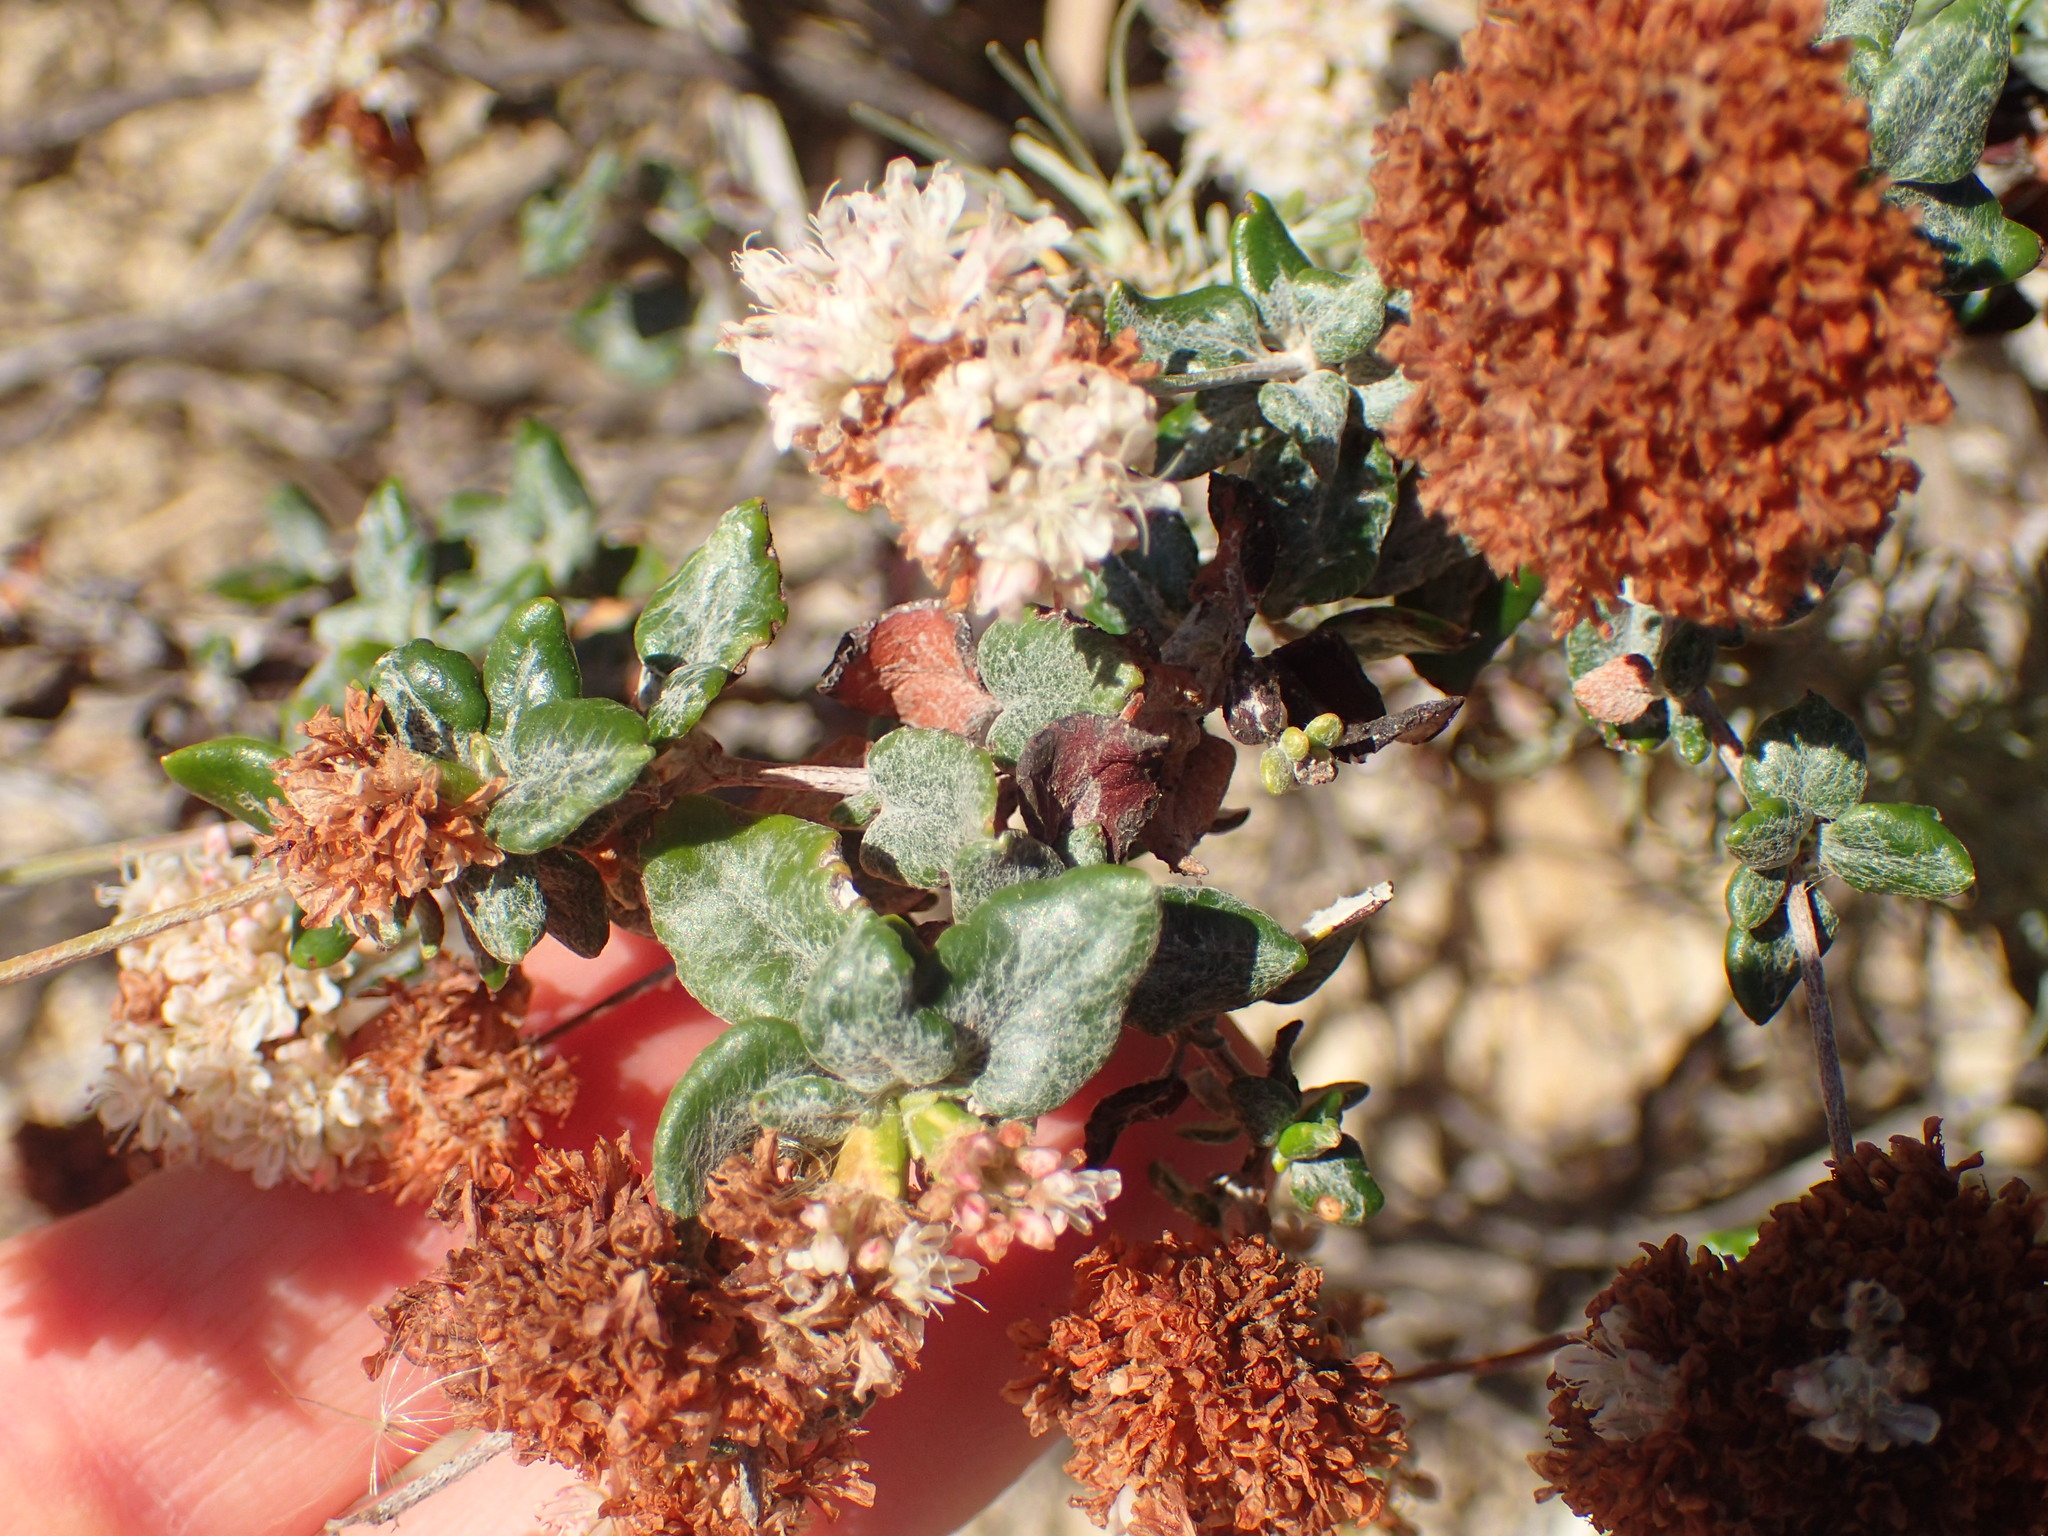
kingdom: Plantae
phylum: Tracheophyta
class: Magnoliopsida
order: Caryophyllales
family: Polygonaceae
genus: Eriogonum
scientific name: Eriogonum parvifolium
